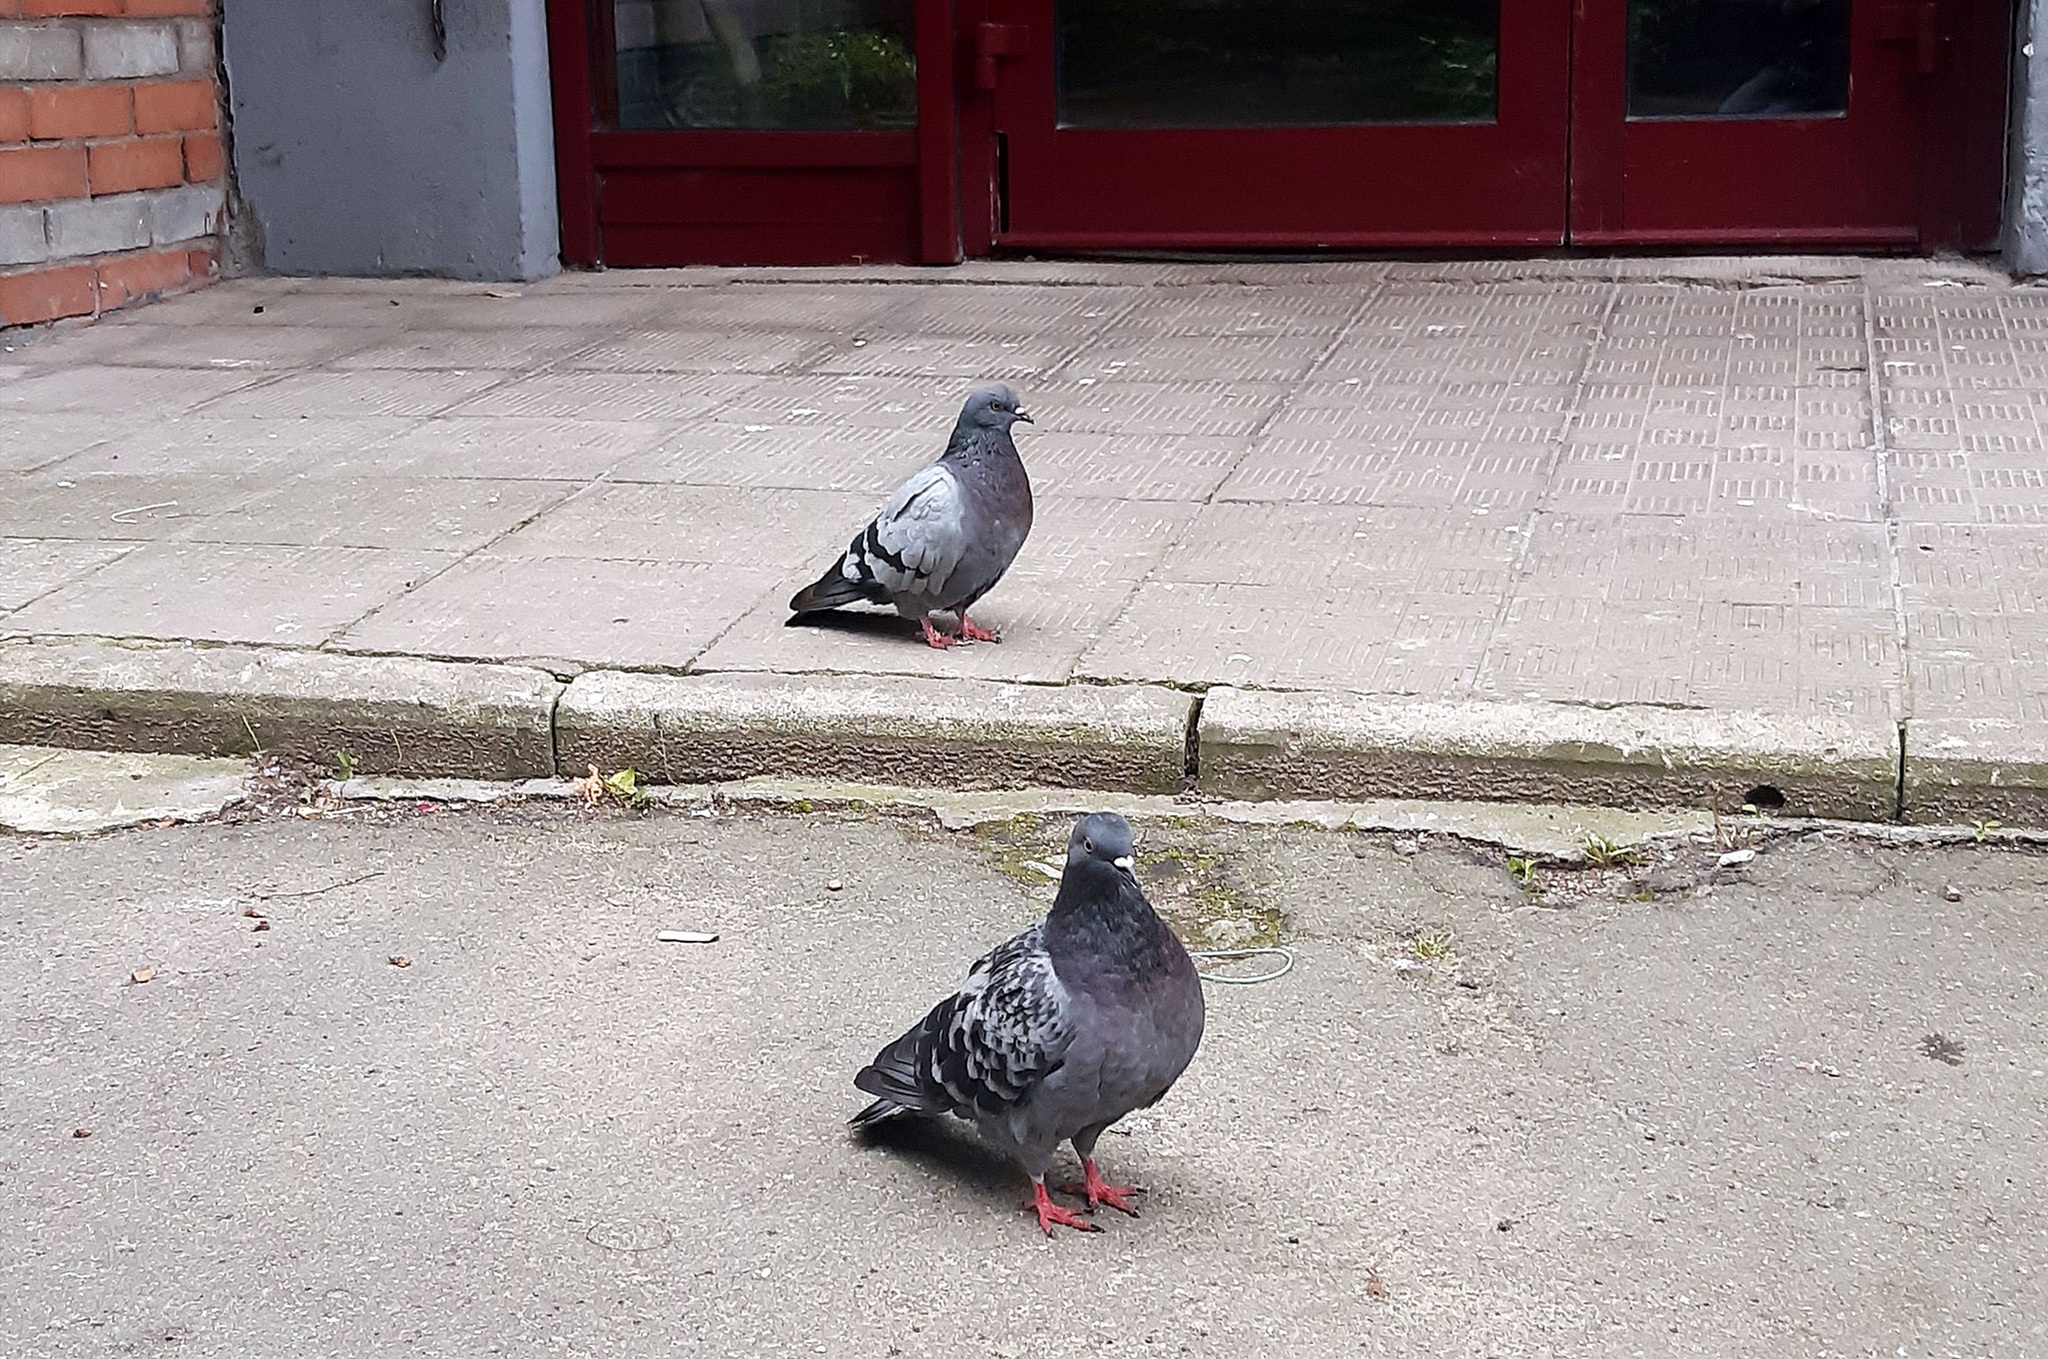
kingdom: Animalia
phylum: Chordata
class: Aves
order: Columbiformes
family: Columbidae
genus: Columba
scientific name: Columba livia
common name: Rock pigeon
